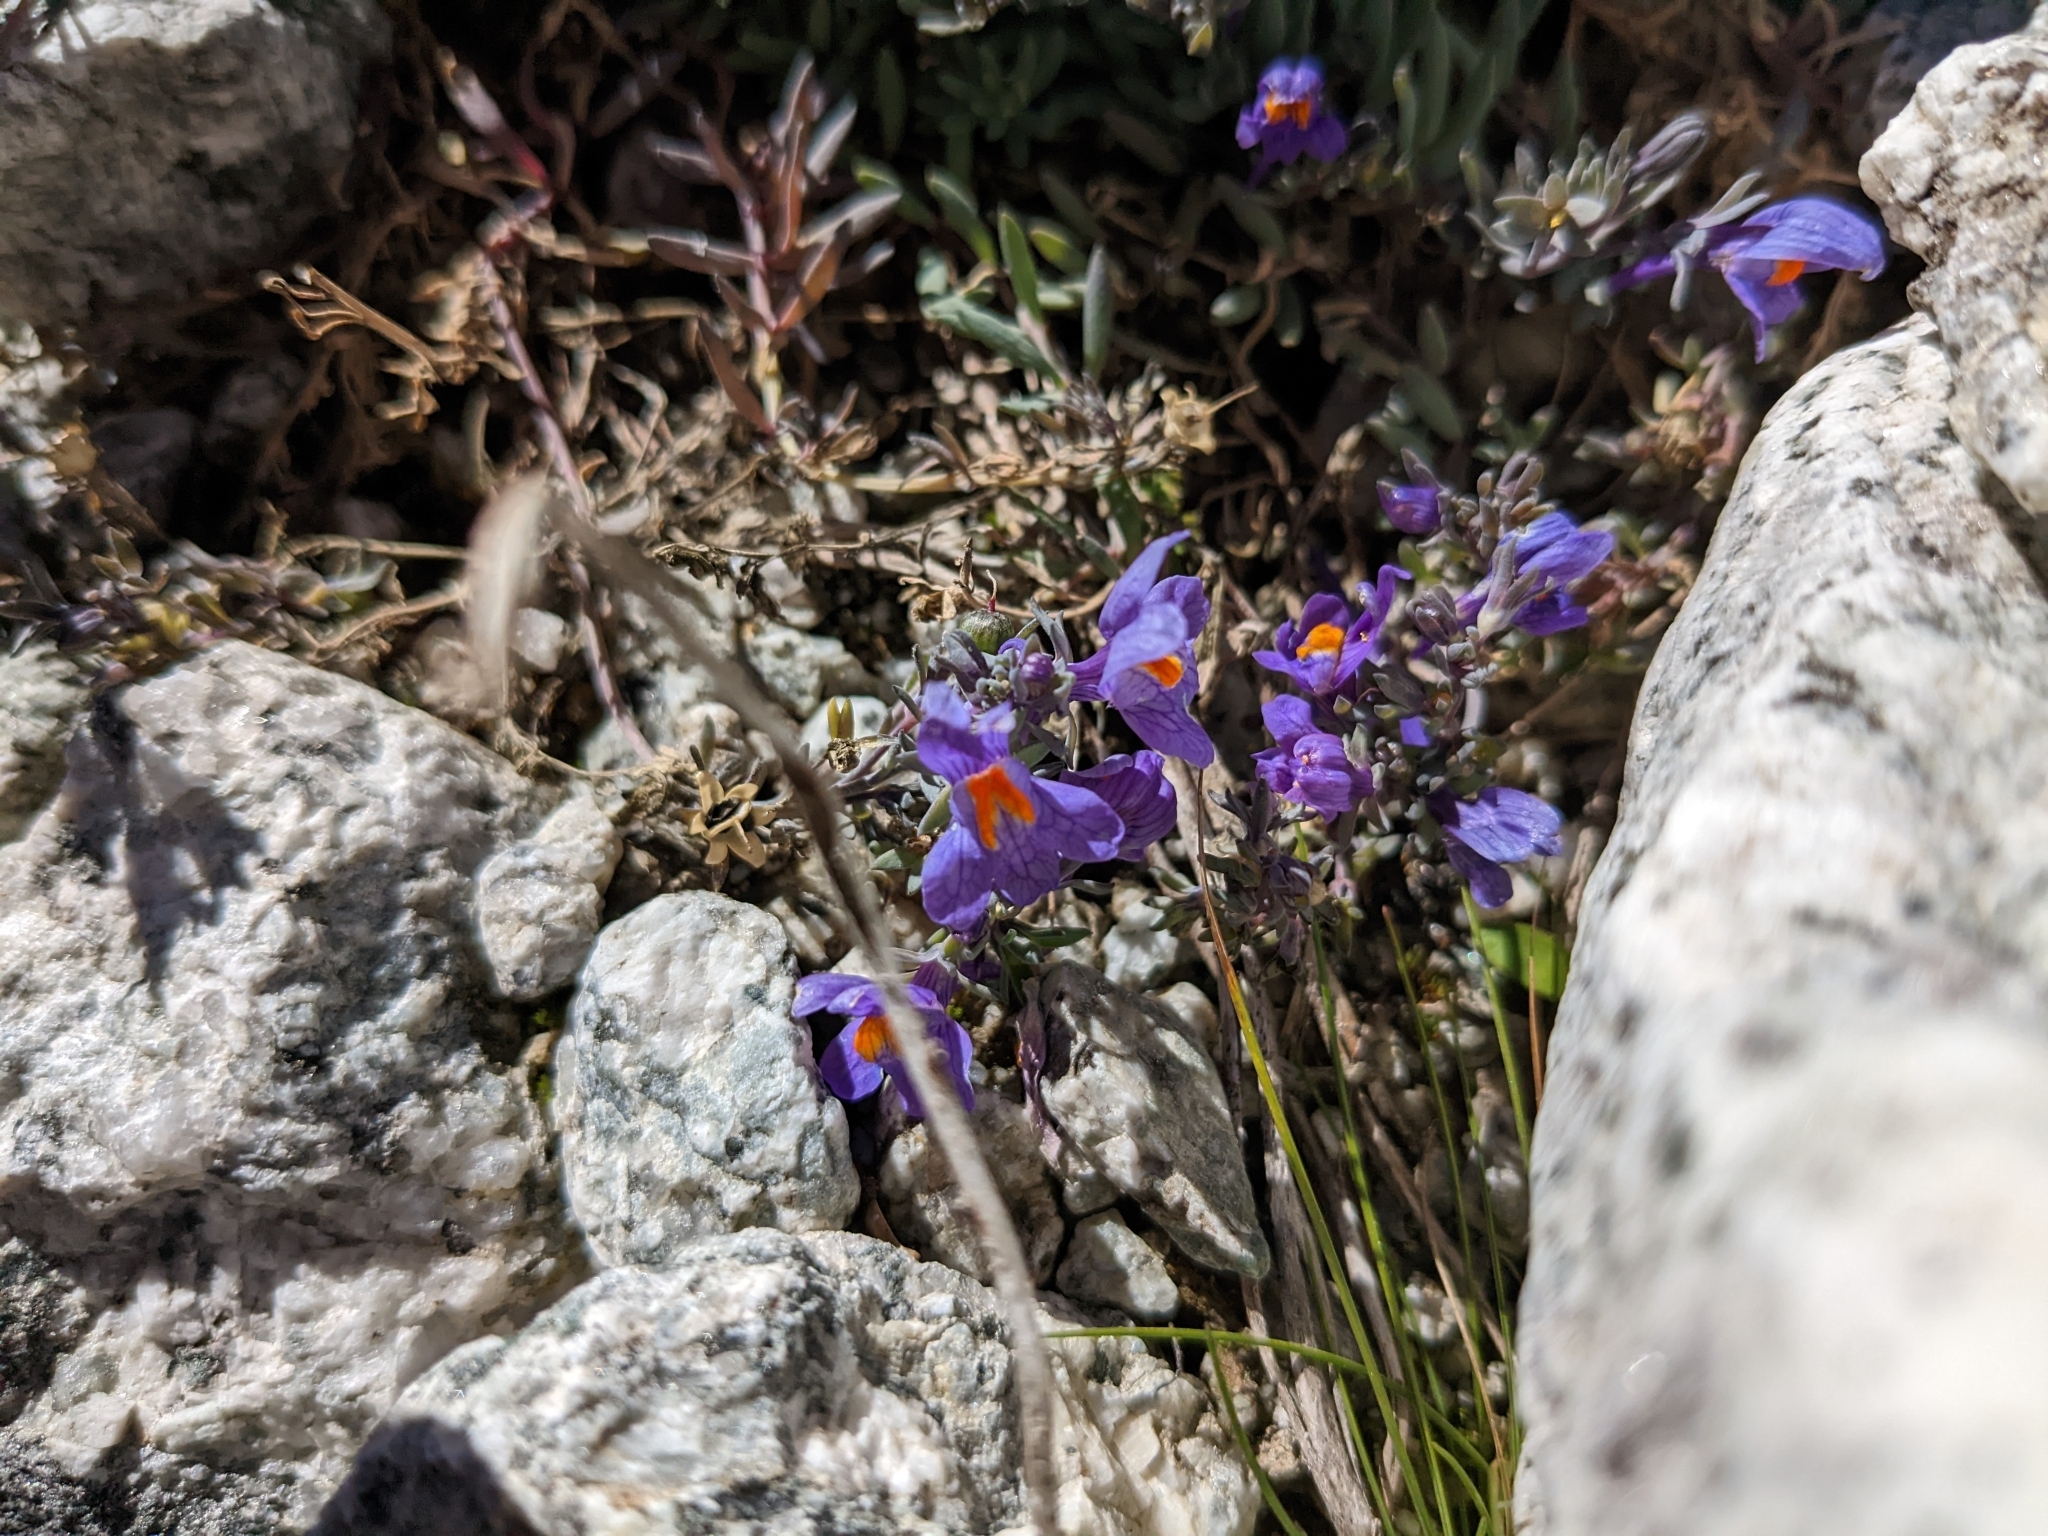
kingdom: Plantae
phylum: Tracheophyta
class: Magnoliopsida
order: Lamiales
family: Plantaginaceae
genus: Linaria
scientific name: Linaria alpina
